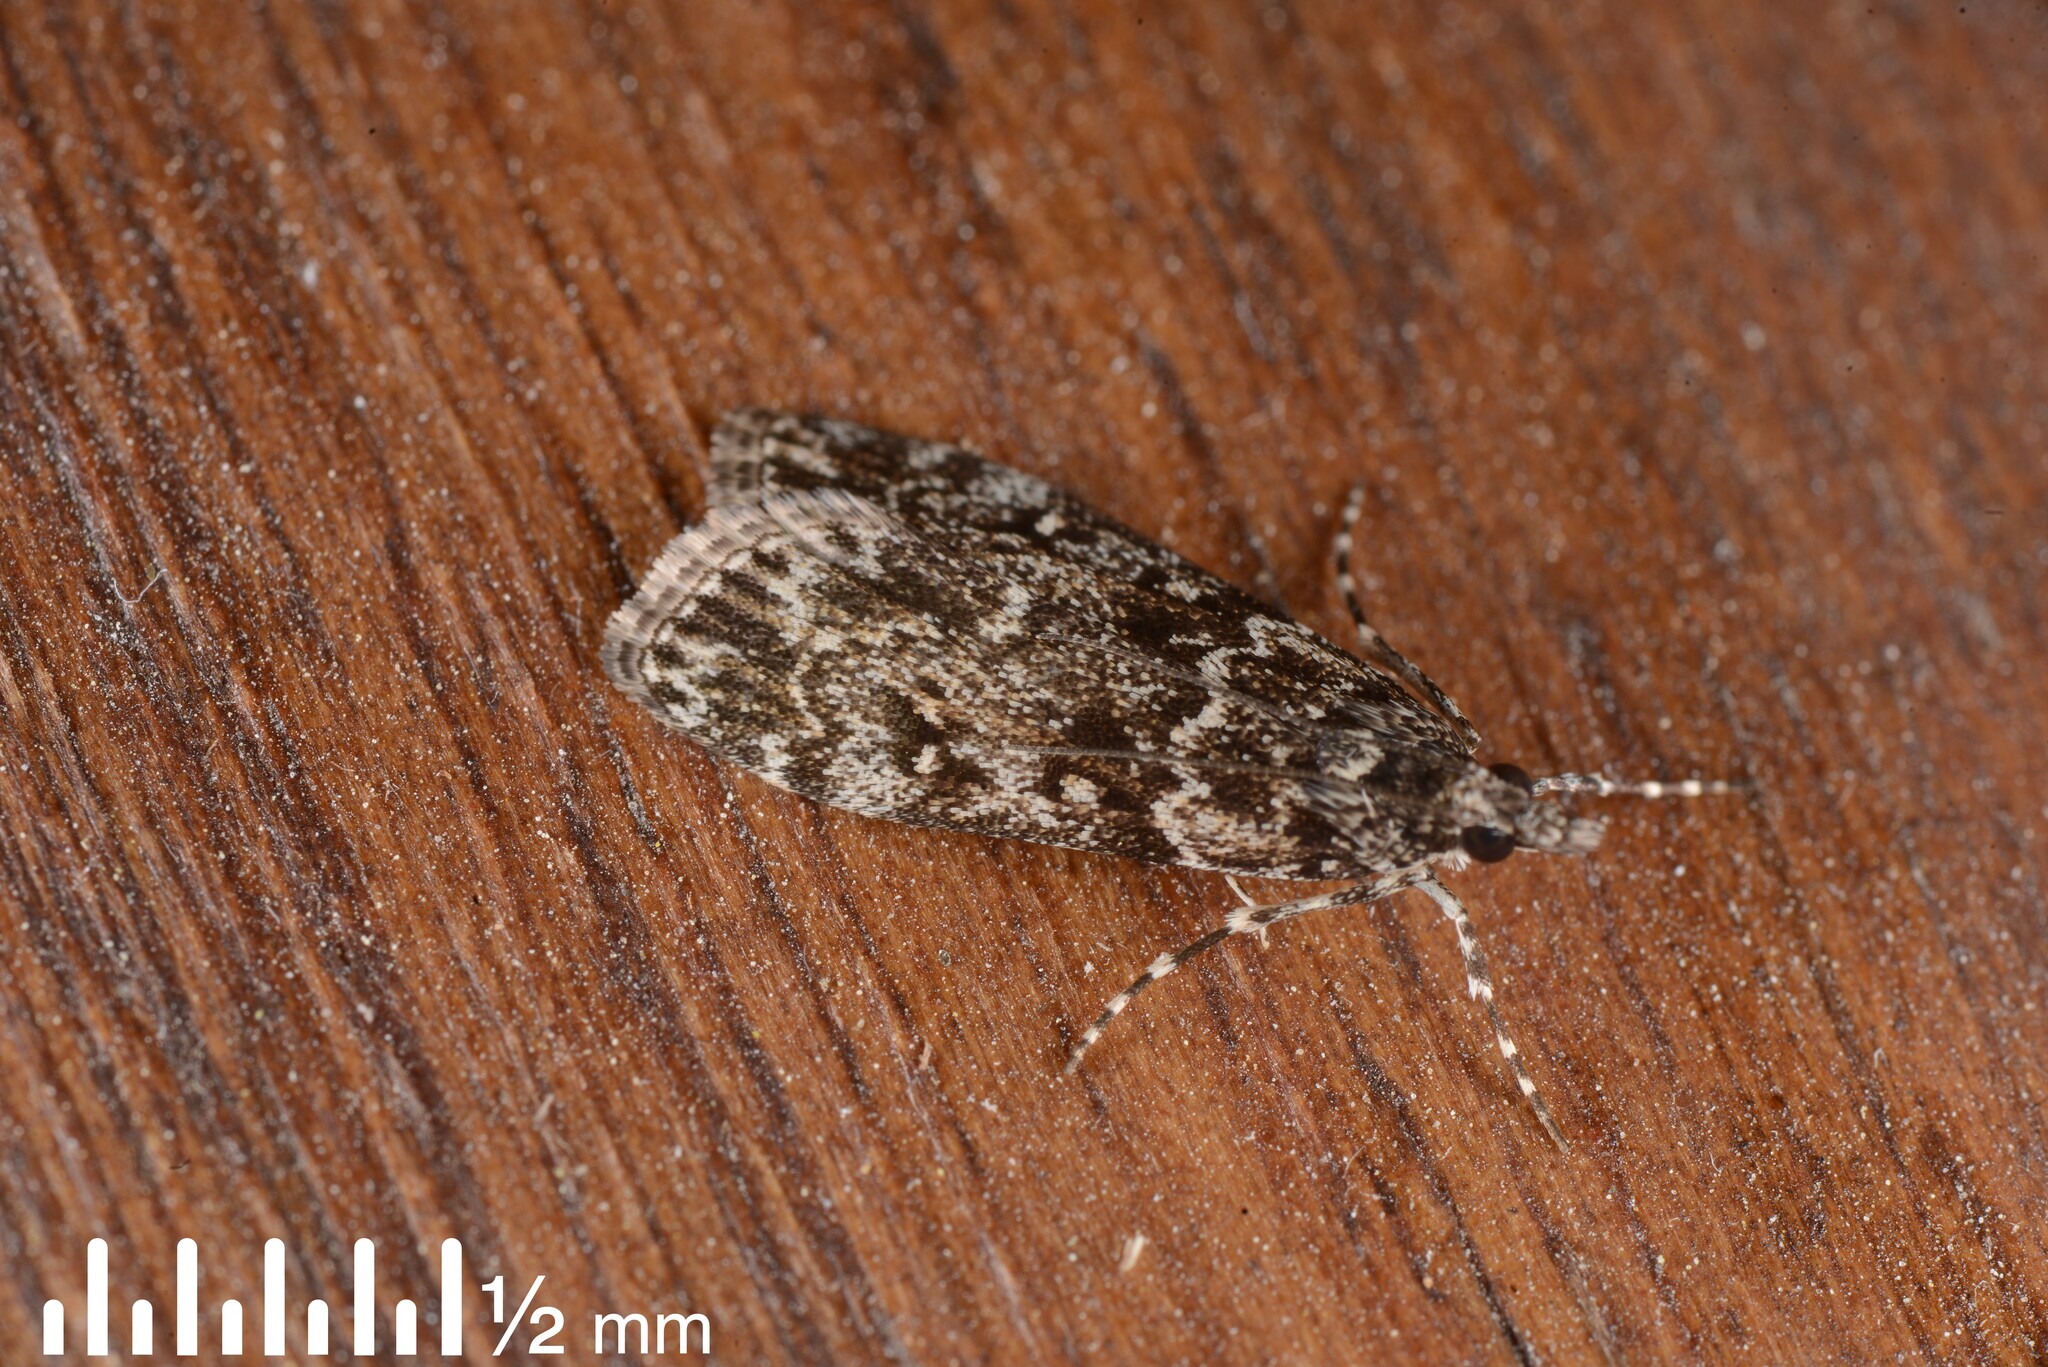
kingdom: Animalia
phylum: Arthropoda
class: Insecta
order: Lepidoptera
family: Crambidae
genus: Eudonia
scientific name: Eudonia philerga
